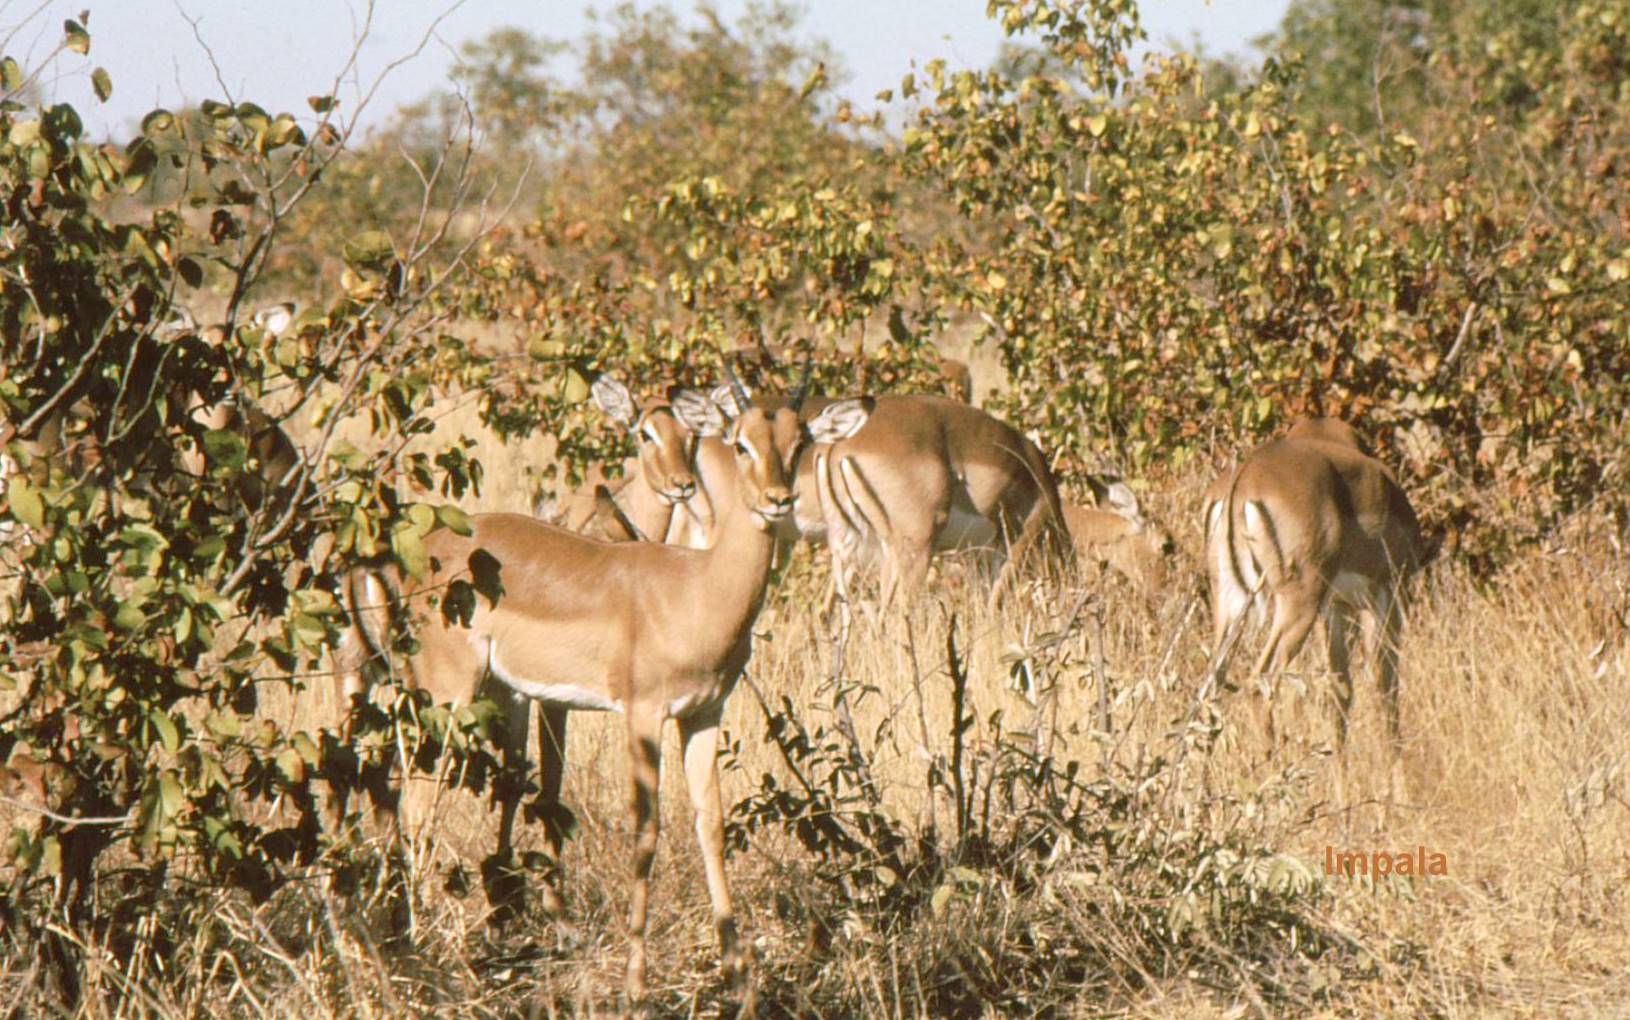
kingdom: Animalia
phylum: Chordata
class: Mammalia
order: Artiodactyla
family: Bovidae
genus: Aepyceros
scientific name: Aepyceros melampus
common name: Impala
